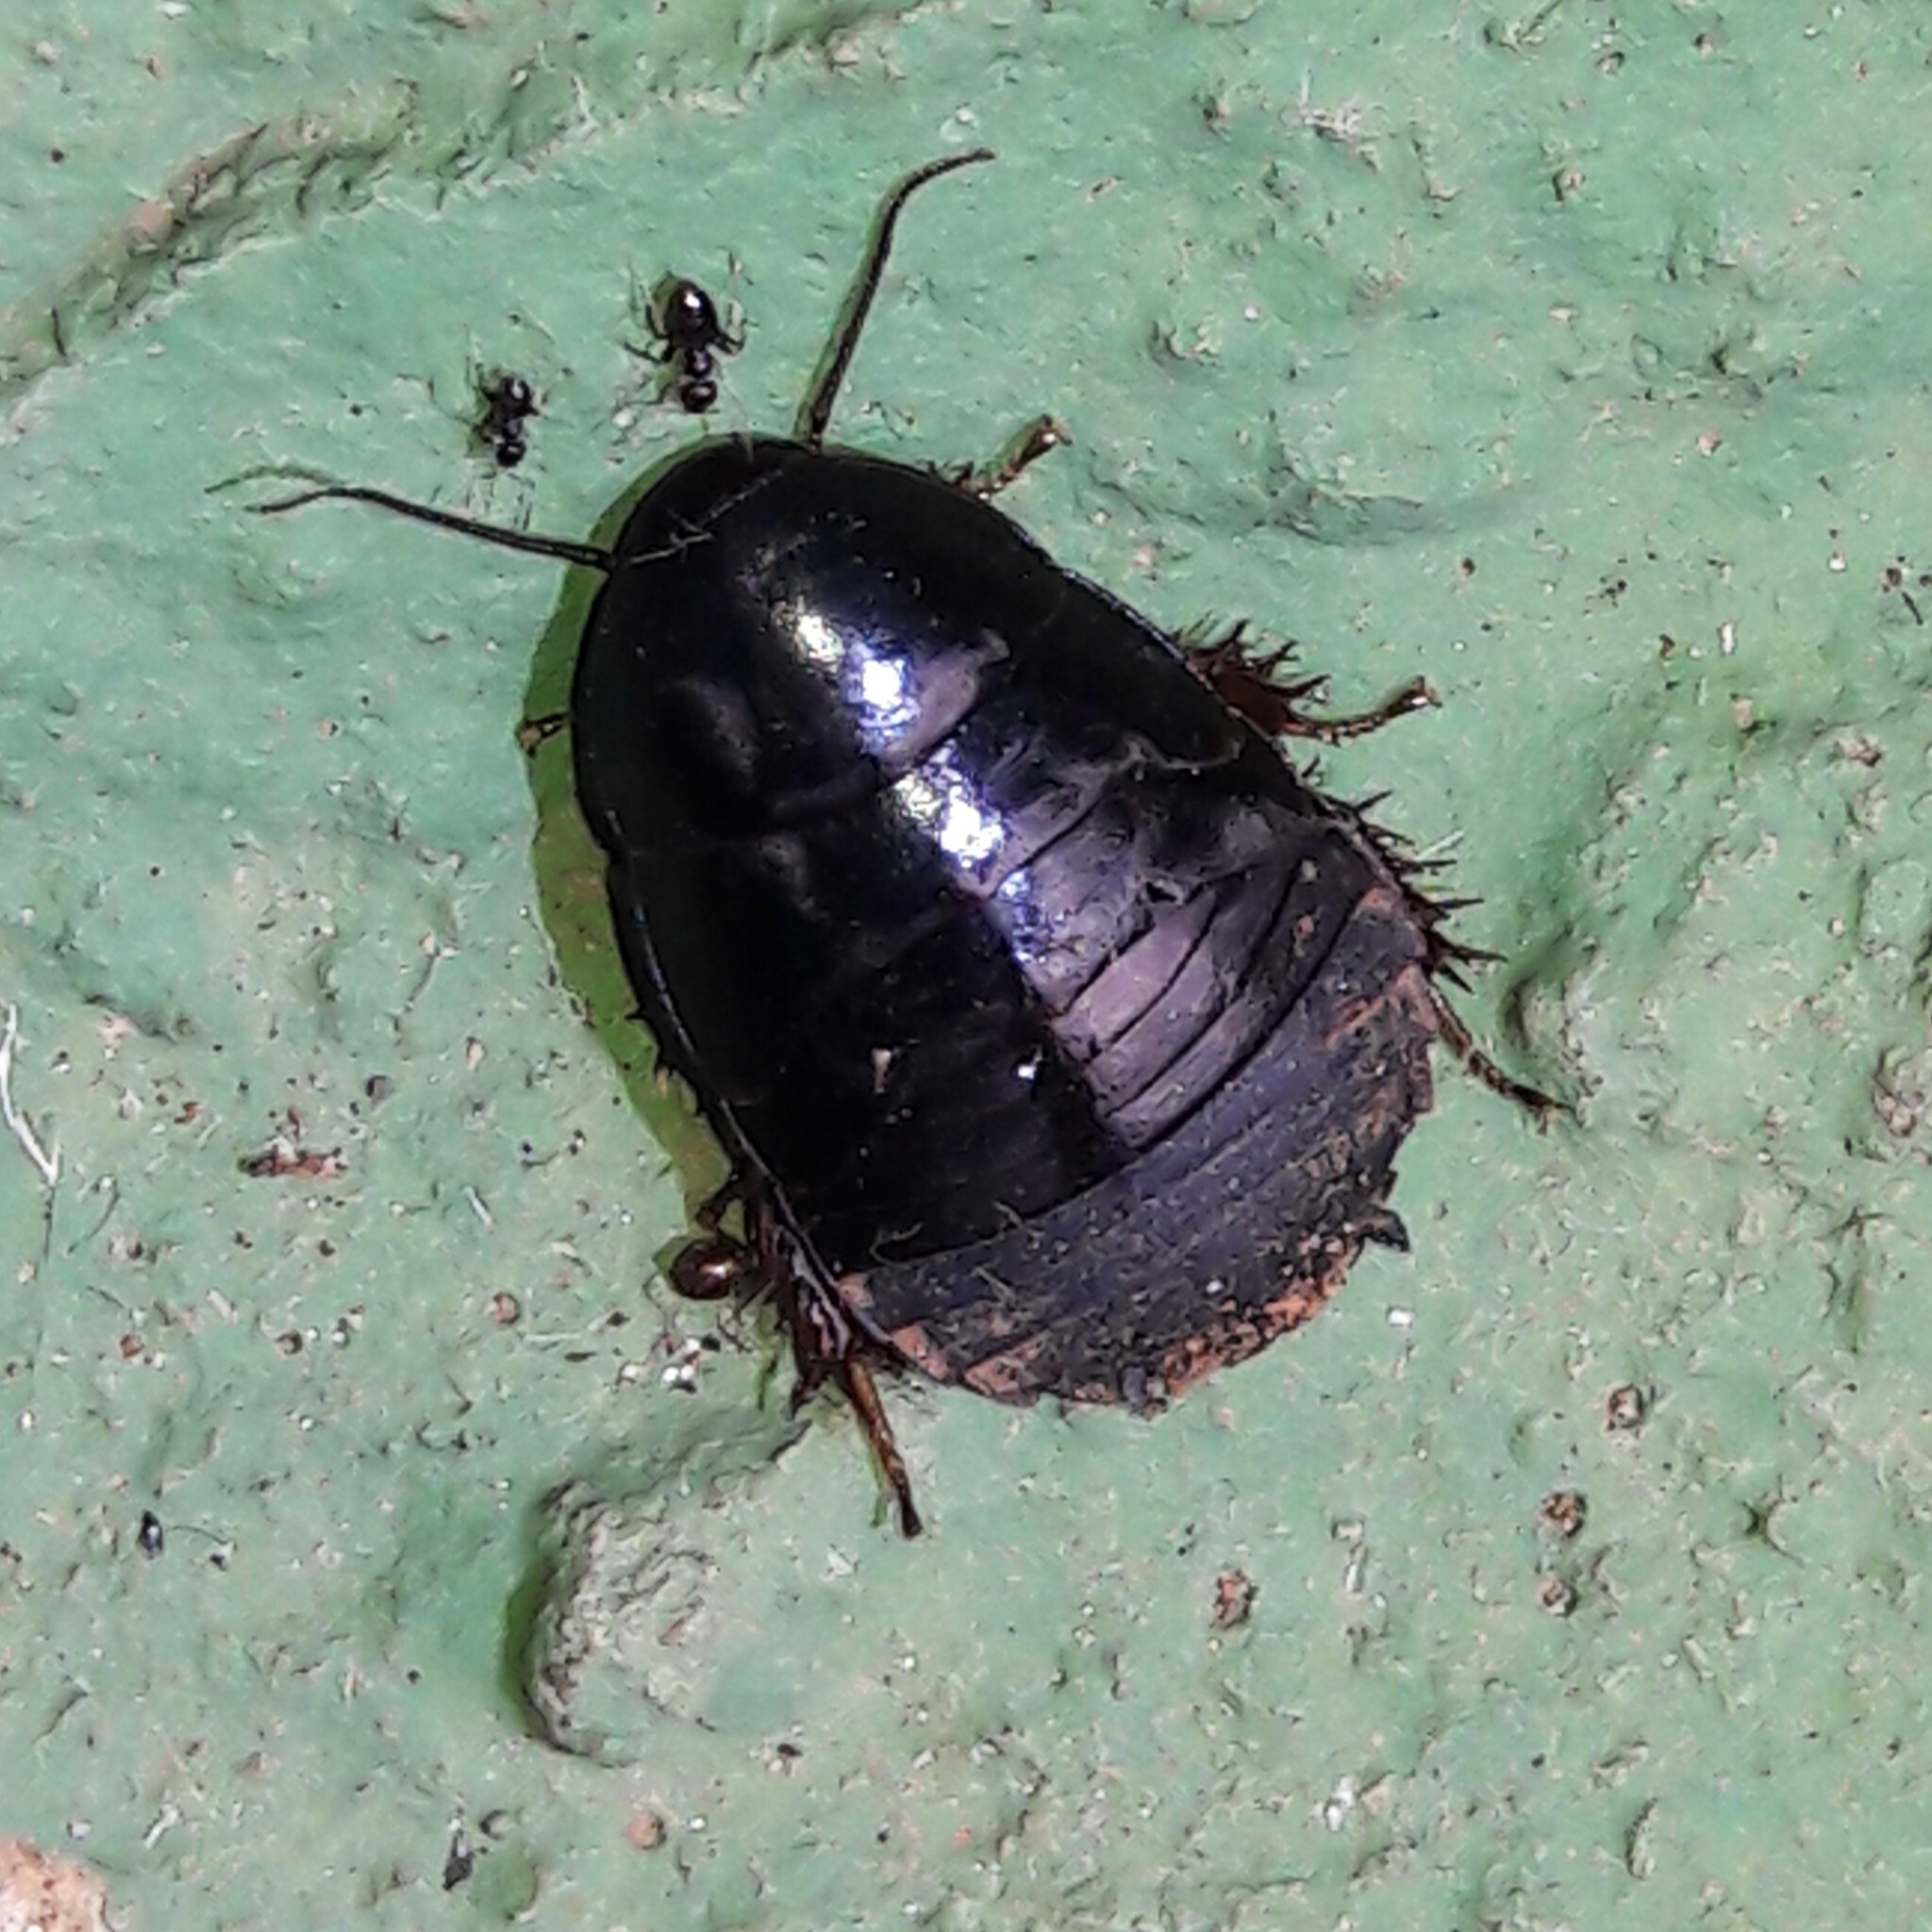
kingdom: Animalia
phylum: Arthropoda
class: Insecta
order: Blattodea
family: Blaberidae
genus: Pycnoscelus
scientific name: Pycnoscelus surinamensis
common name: Surinam cockroach
